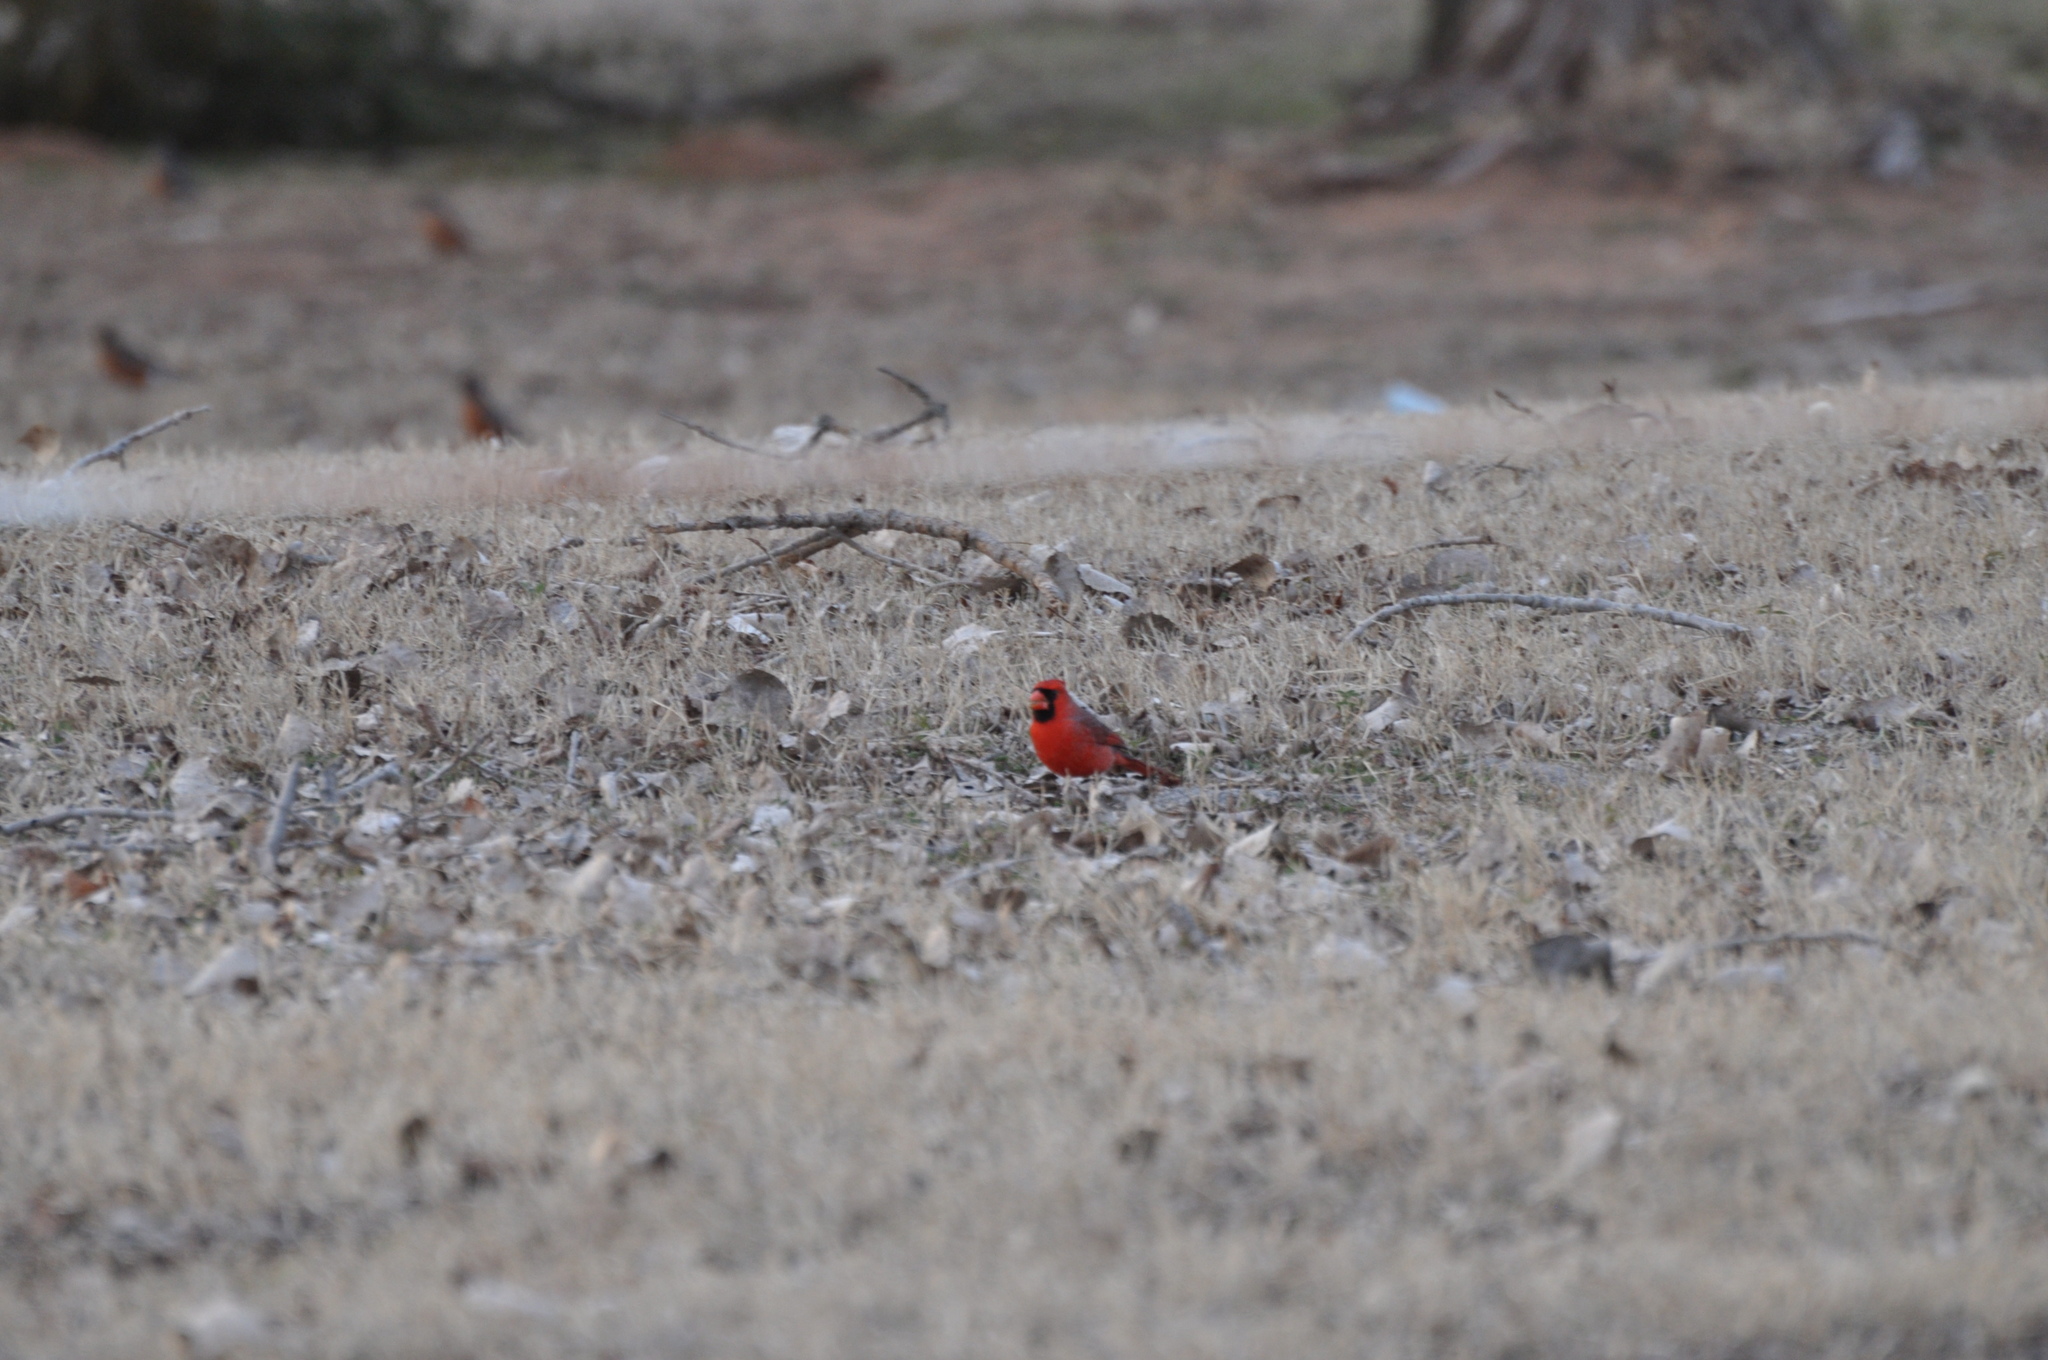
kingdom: Animalia
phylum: Chordata
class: Aves
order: Passeriformes
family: Cardinalidae
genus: Cardinalis
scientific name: Cardinalis cardinalis
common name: Northern cardinal
